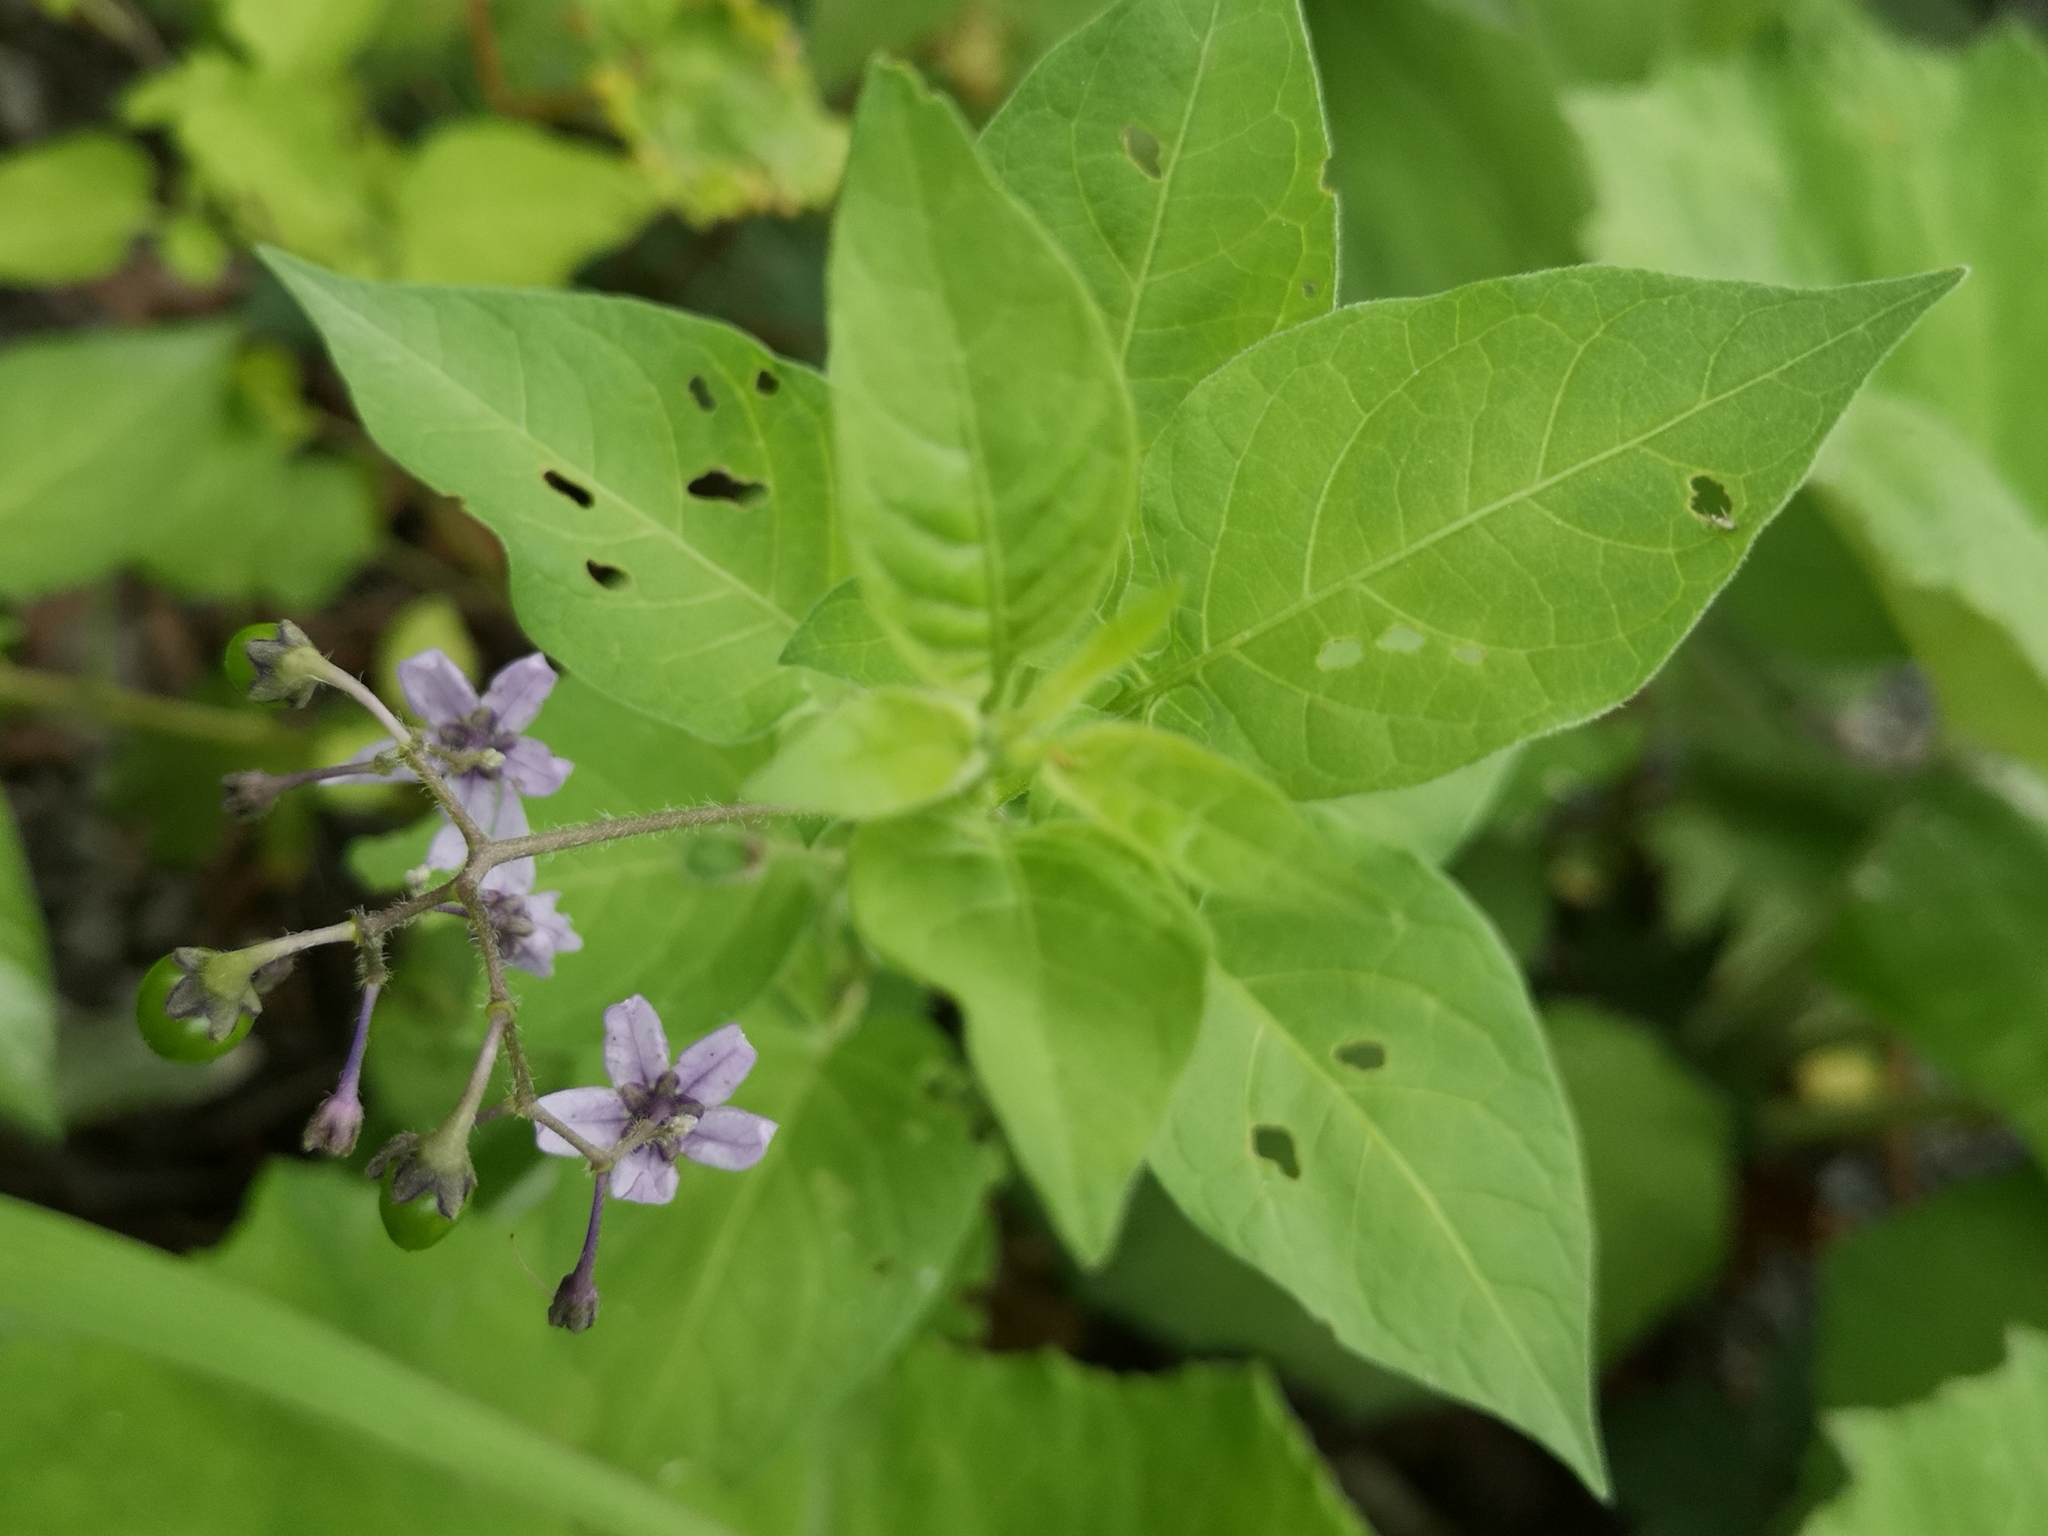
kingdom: Plantae
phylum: Tracheophyta
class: Magnoliopsida
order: Solanales
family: Solanaceae
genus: Solanum
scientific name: Solanum dulcamara
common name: Climbing nightshade
